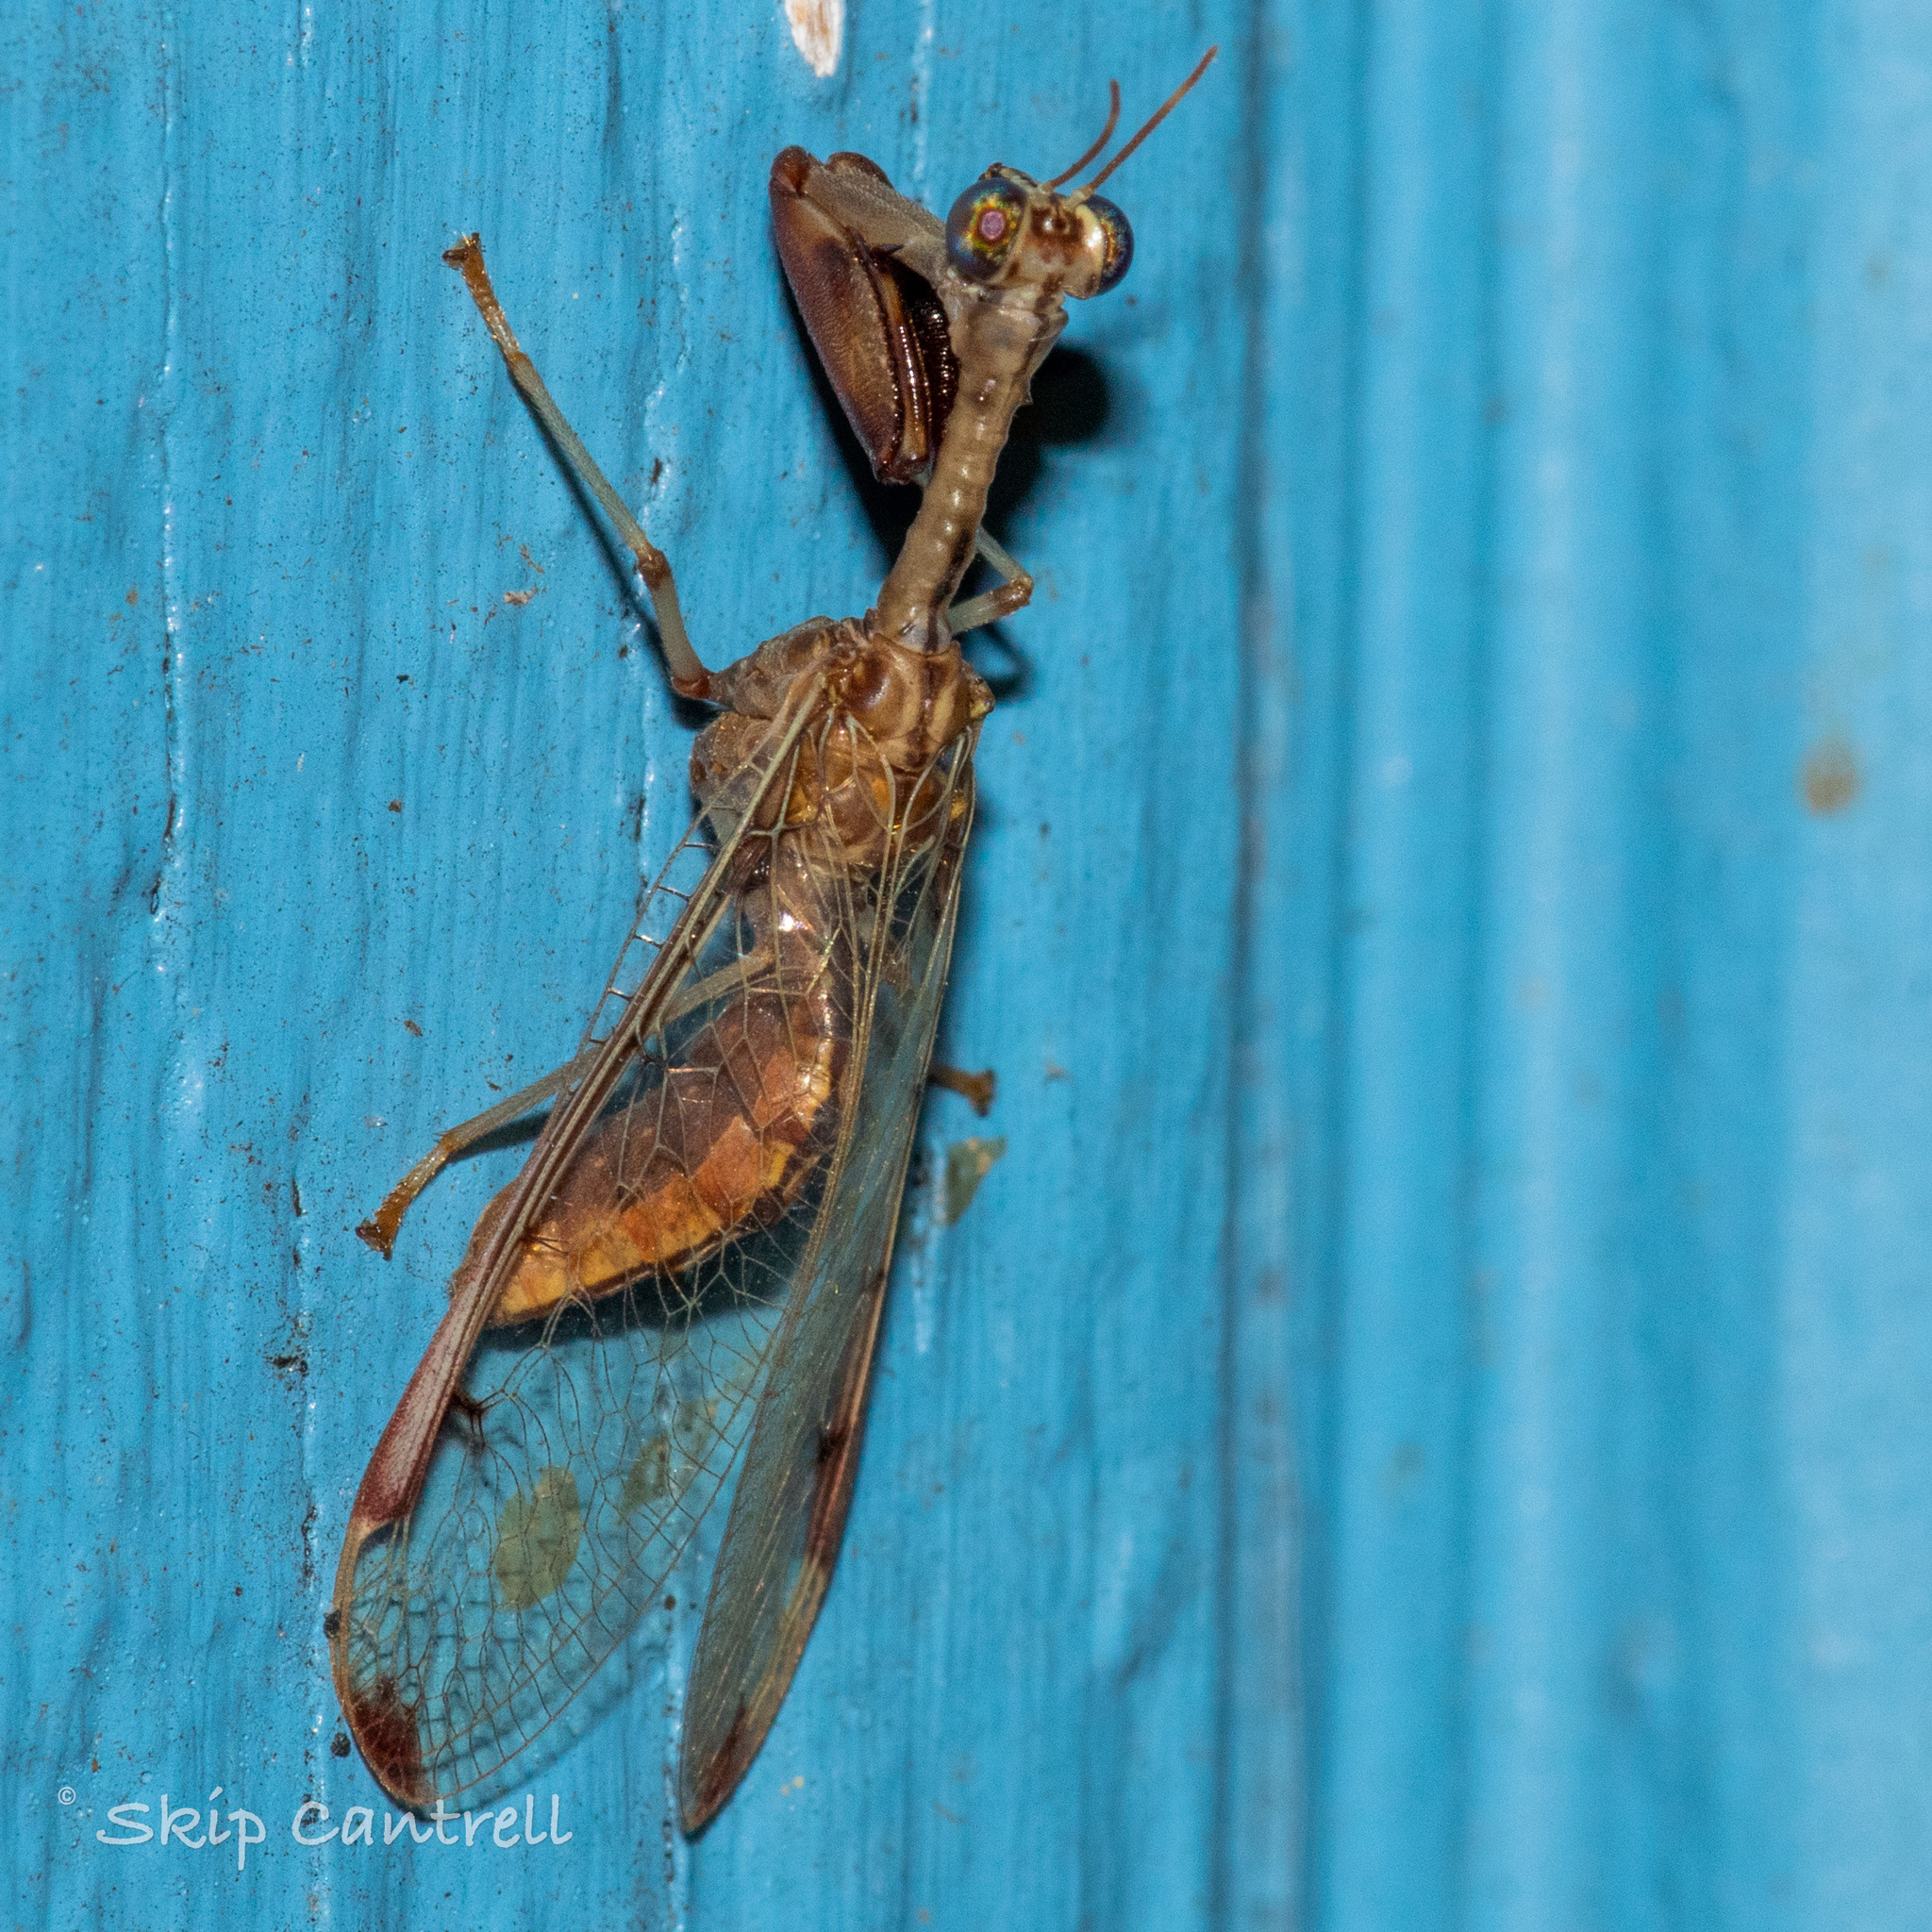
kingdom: Animalia
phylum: Arthropoda
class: Insecta
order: Neuroptera
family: Mantispidae
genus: Dicromantispa
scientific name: Dicromantispa interrupta
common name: Four-spotted mantidfly
